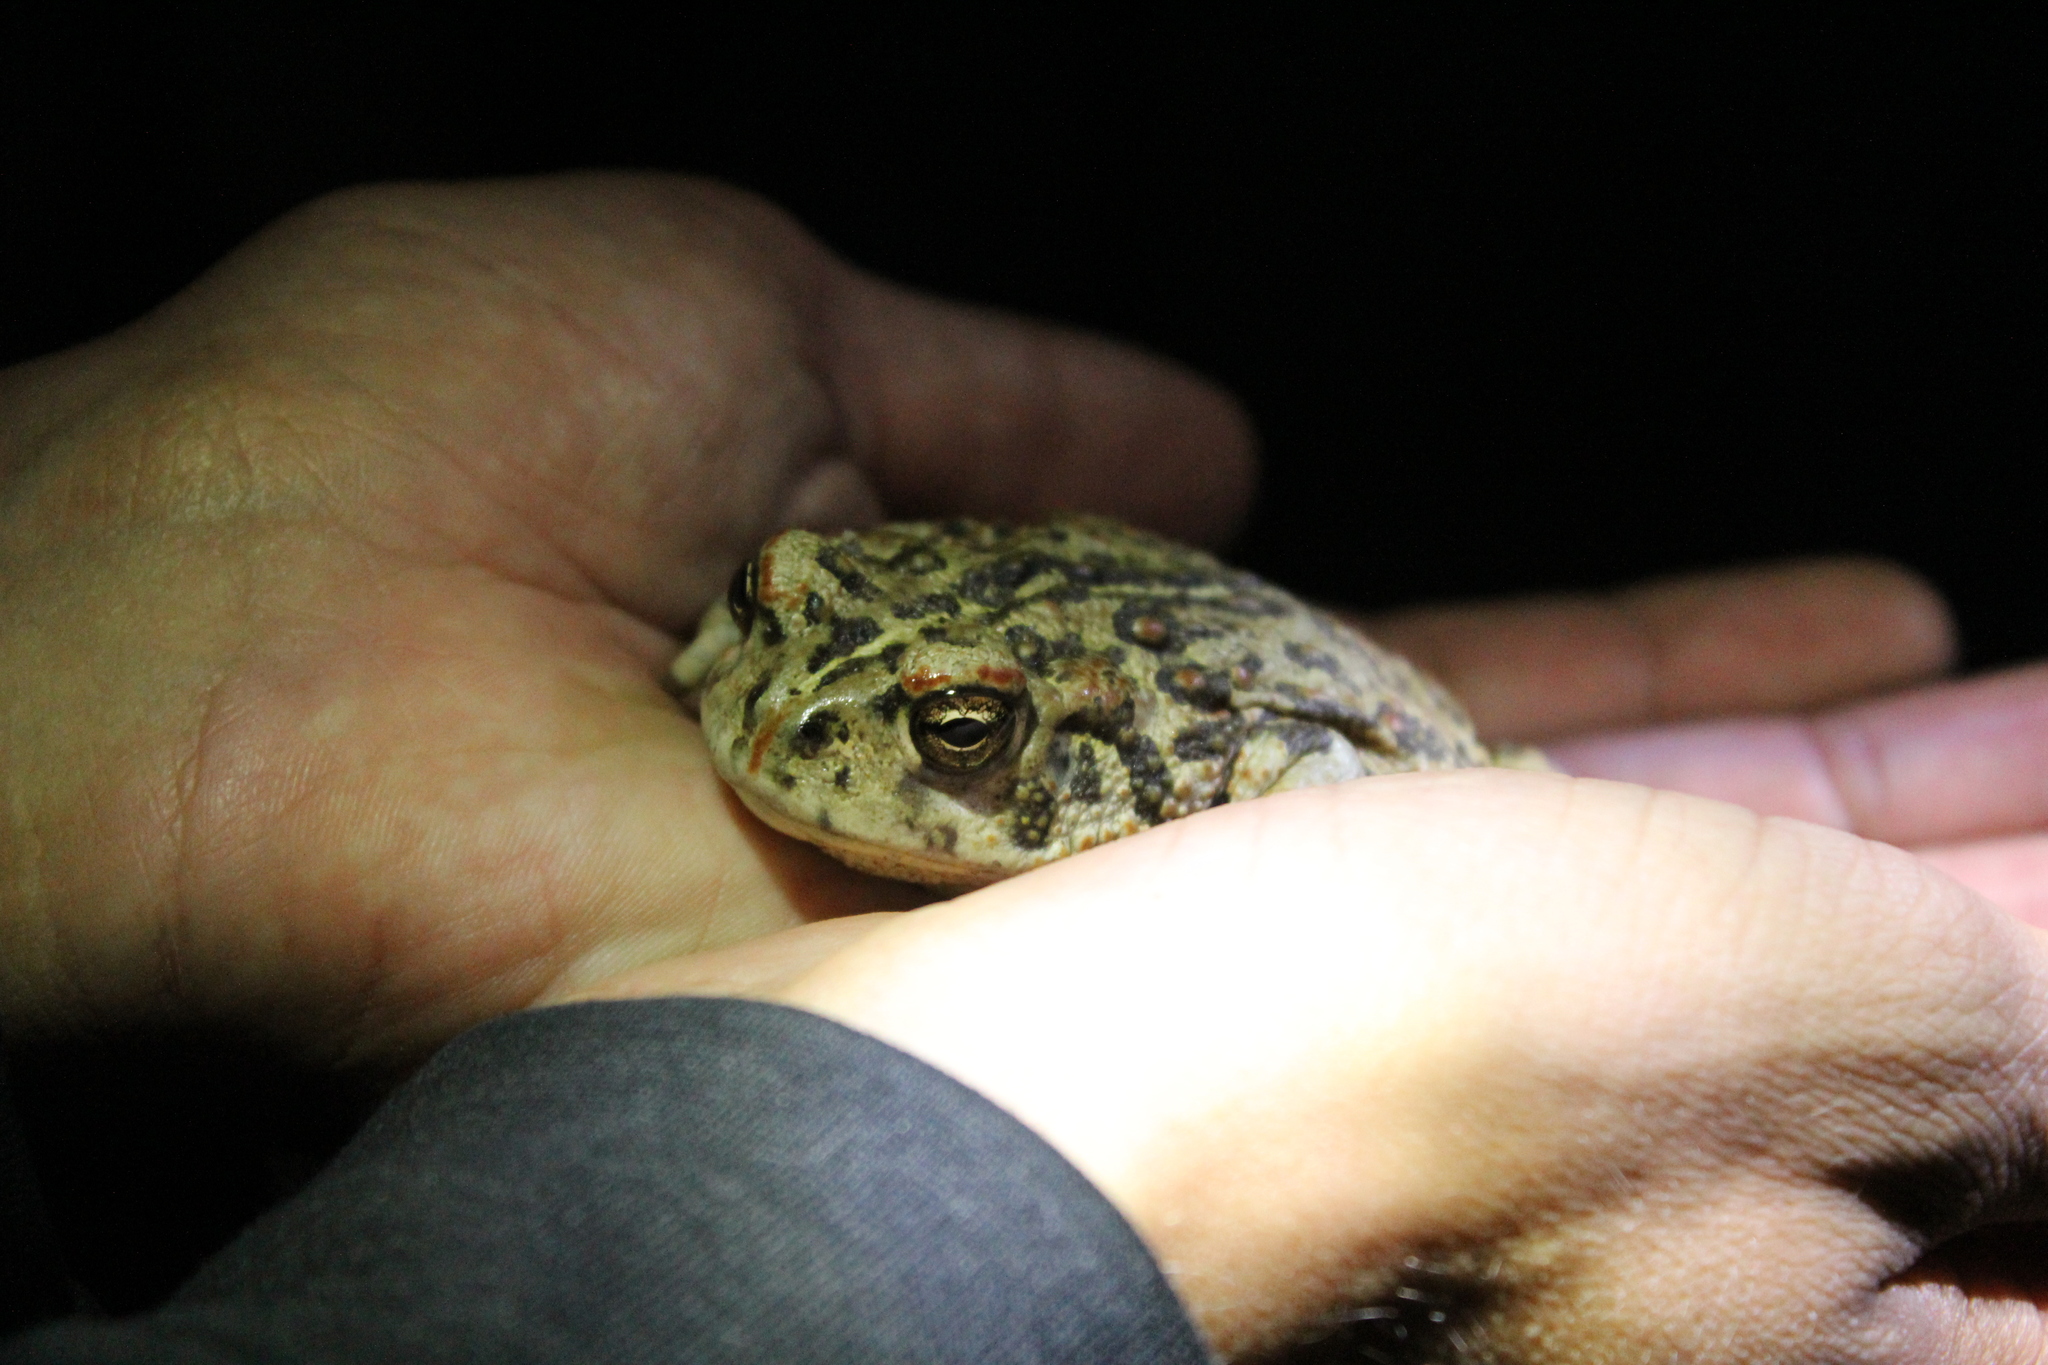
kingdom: Animalia
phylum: Chordata
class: Amphibia
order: Anura
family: Bufonidae
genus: Anaxyrus
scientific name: Anaxyrus boreas
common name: Western toad
